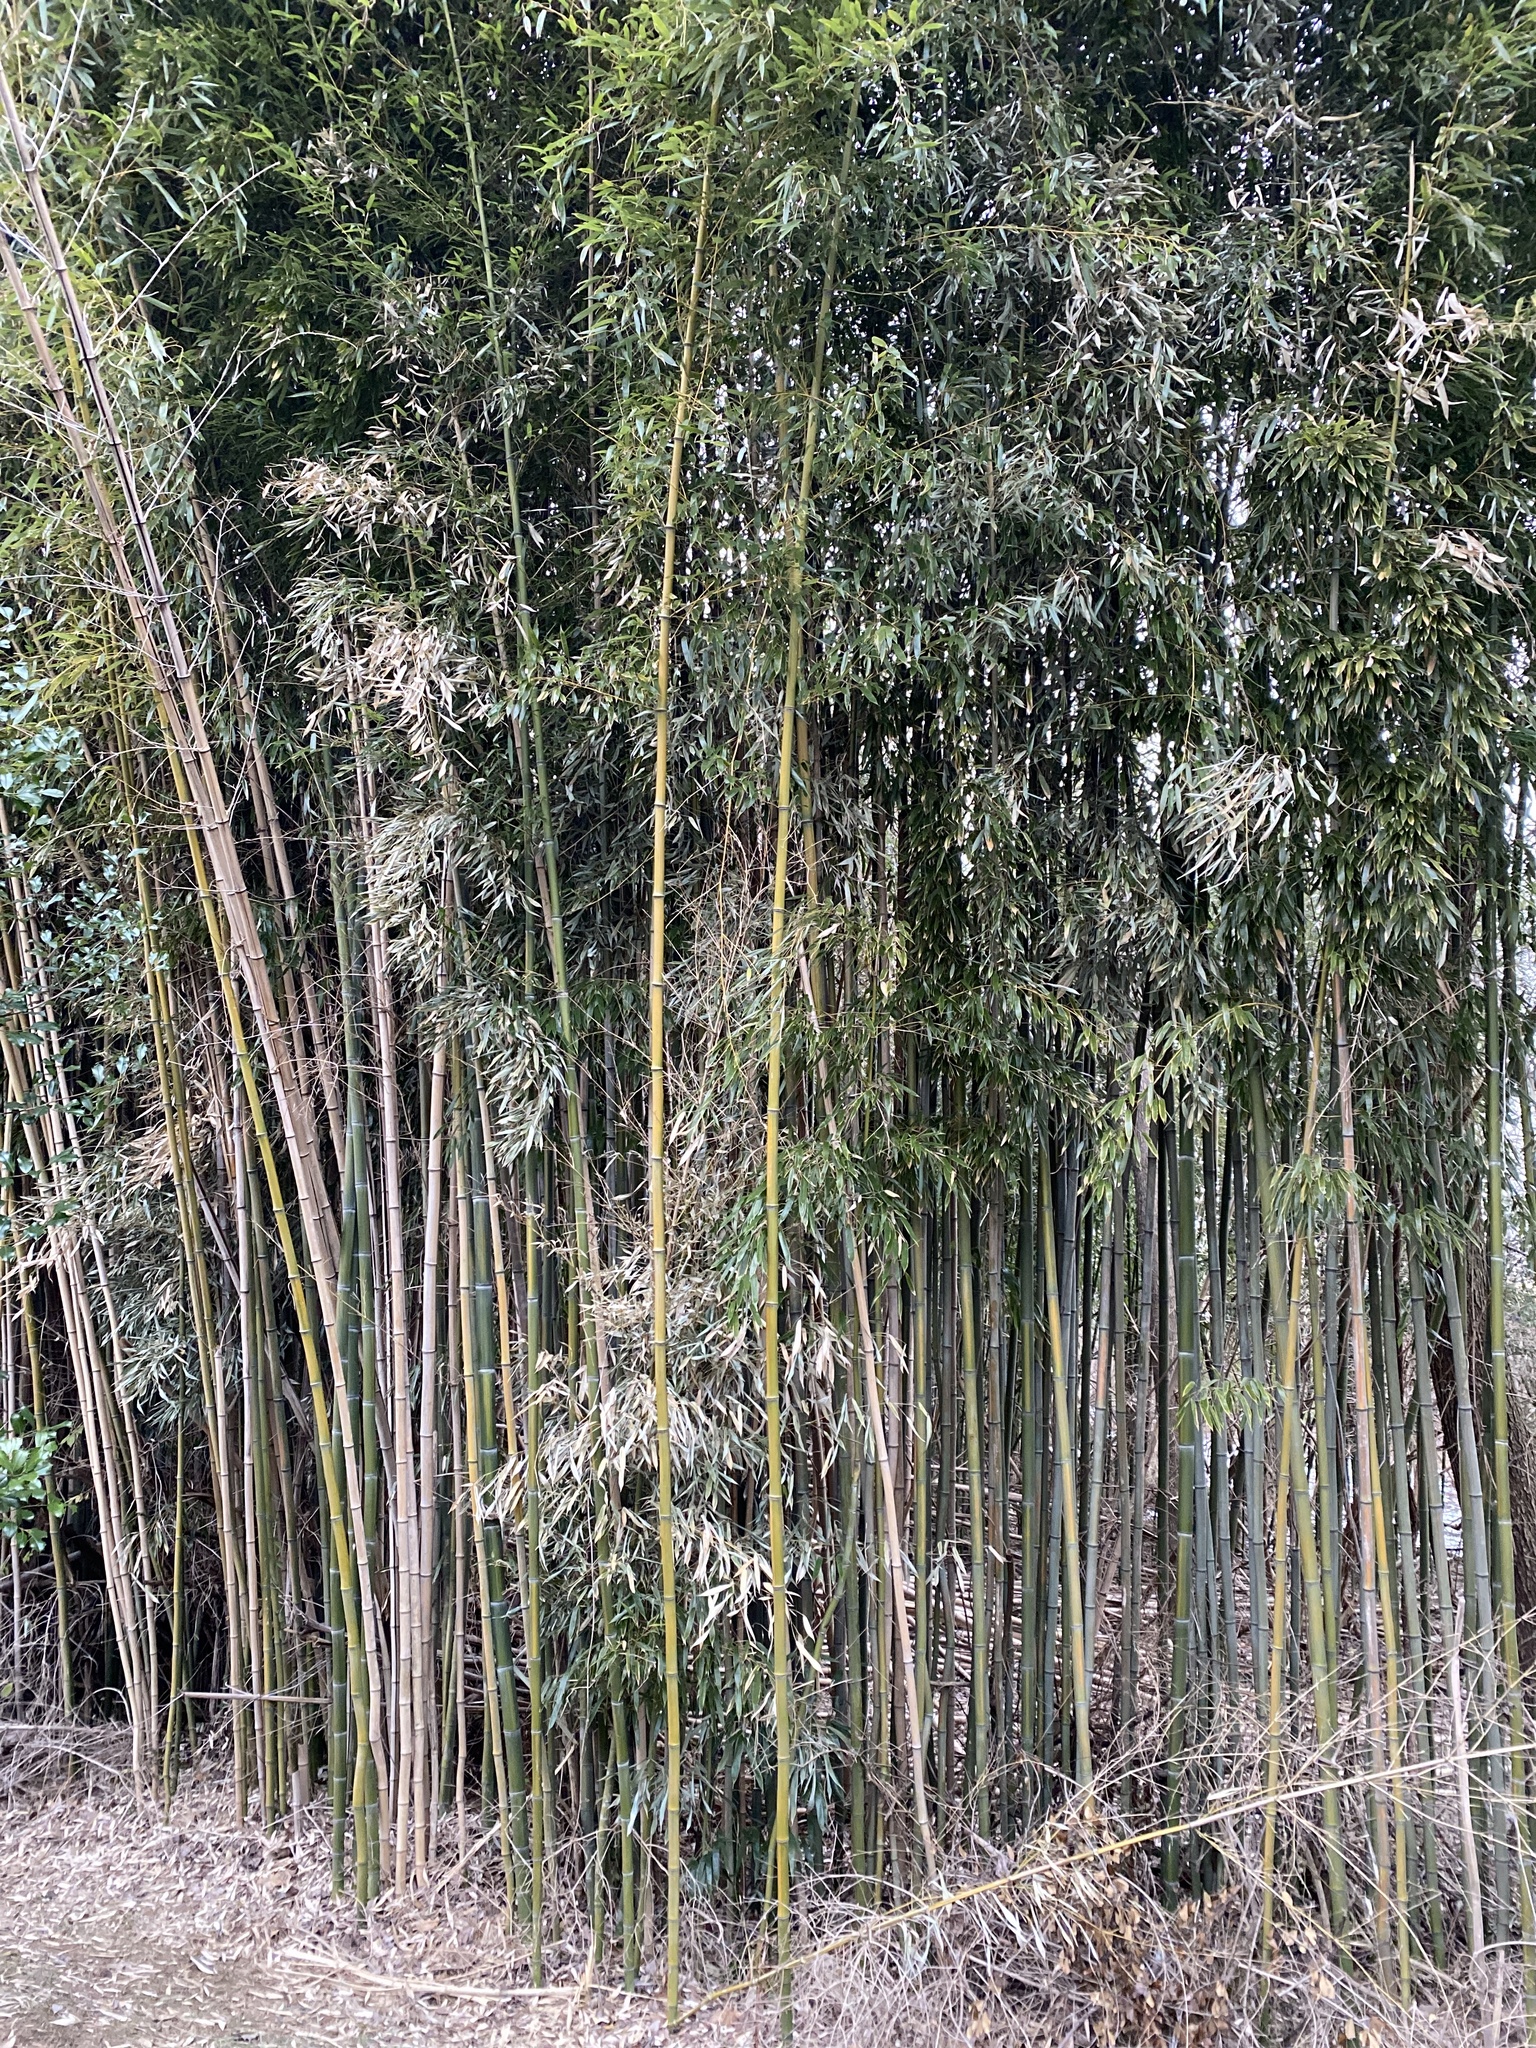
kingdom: Plantae
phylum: Tracheophyta
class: Liliopsida
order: Poales
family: Poaceae
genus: Phyllostachys
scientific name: Phyllostachys aureosulcata
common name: Yellow groove bamboo
